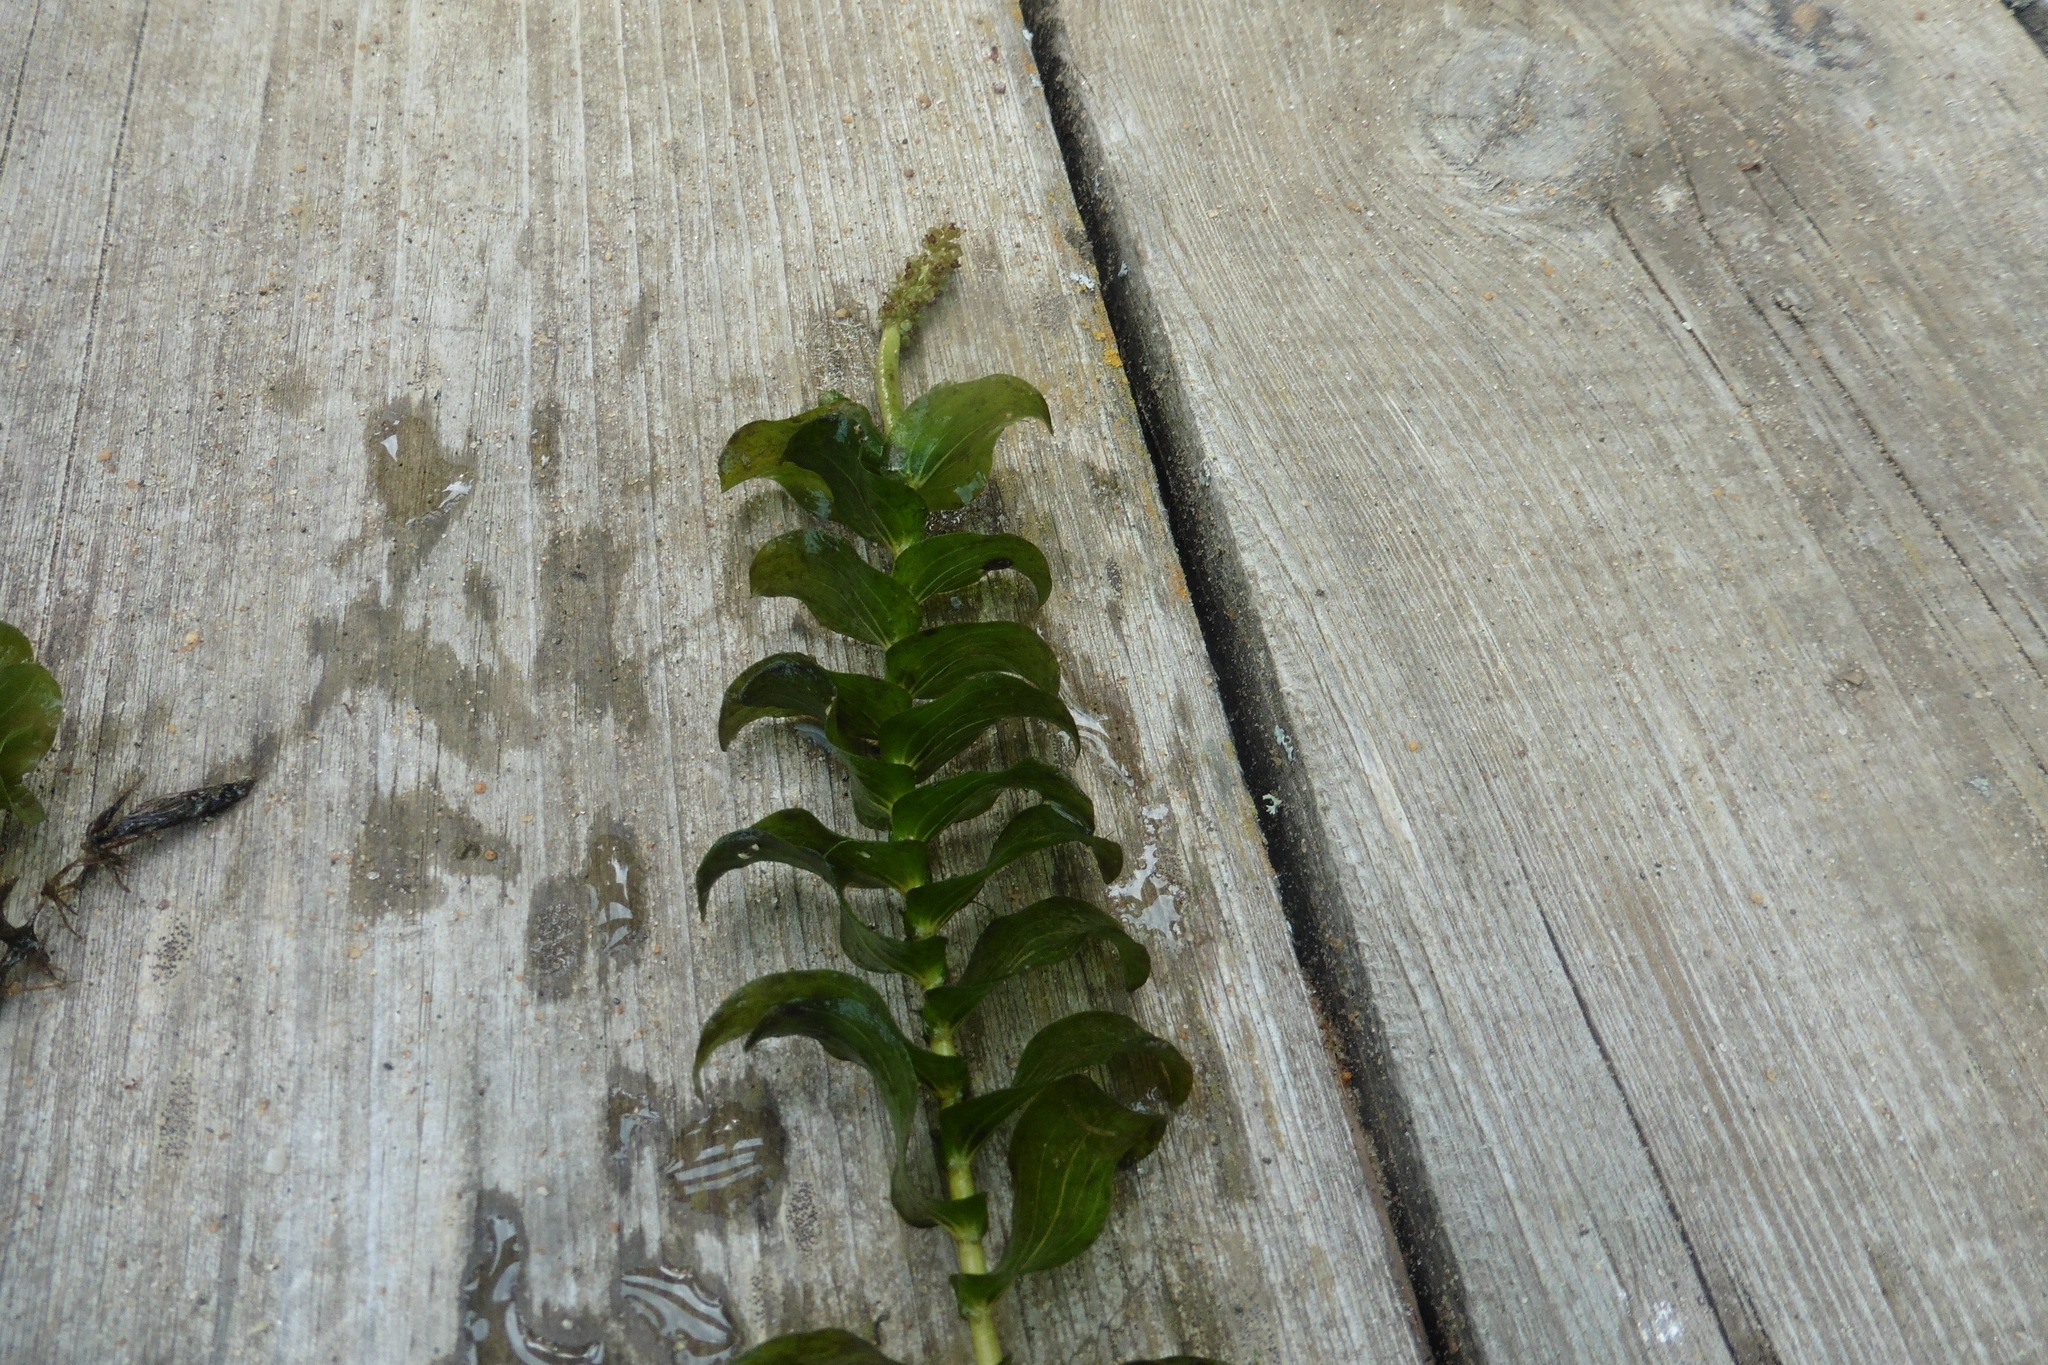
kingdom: Plantae
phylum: Tracheophyta
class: Liliopsida
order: Alismatales
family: Potamogetonaceae
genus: Potamogeton
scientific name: Potamogeton perfoliatus
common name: Perfoliate pondweed
